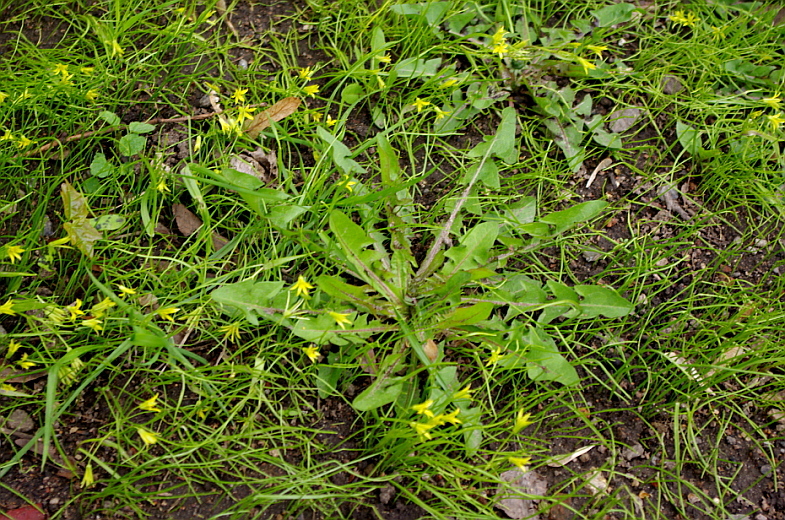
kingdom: Plantae
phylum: Tracheophyta
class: Magnoliopsida
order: Asterales
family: Asteraceae
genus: Taraxacum
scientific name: Taraxacum officinale
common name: Common dandelion
